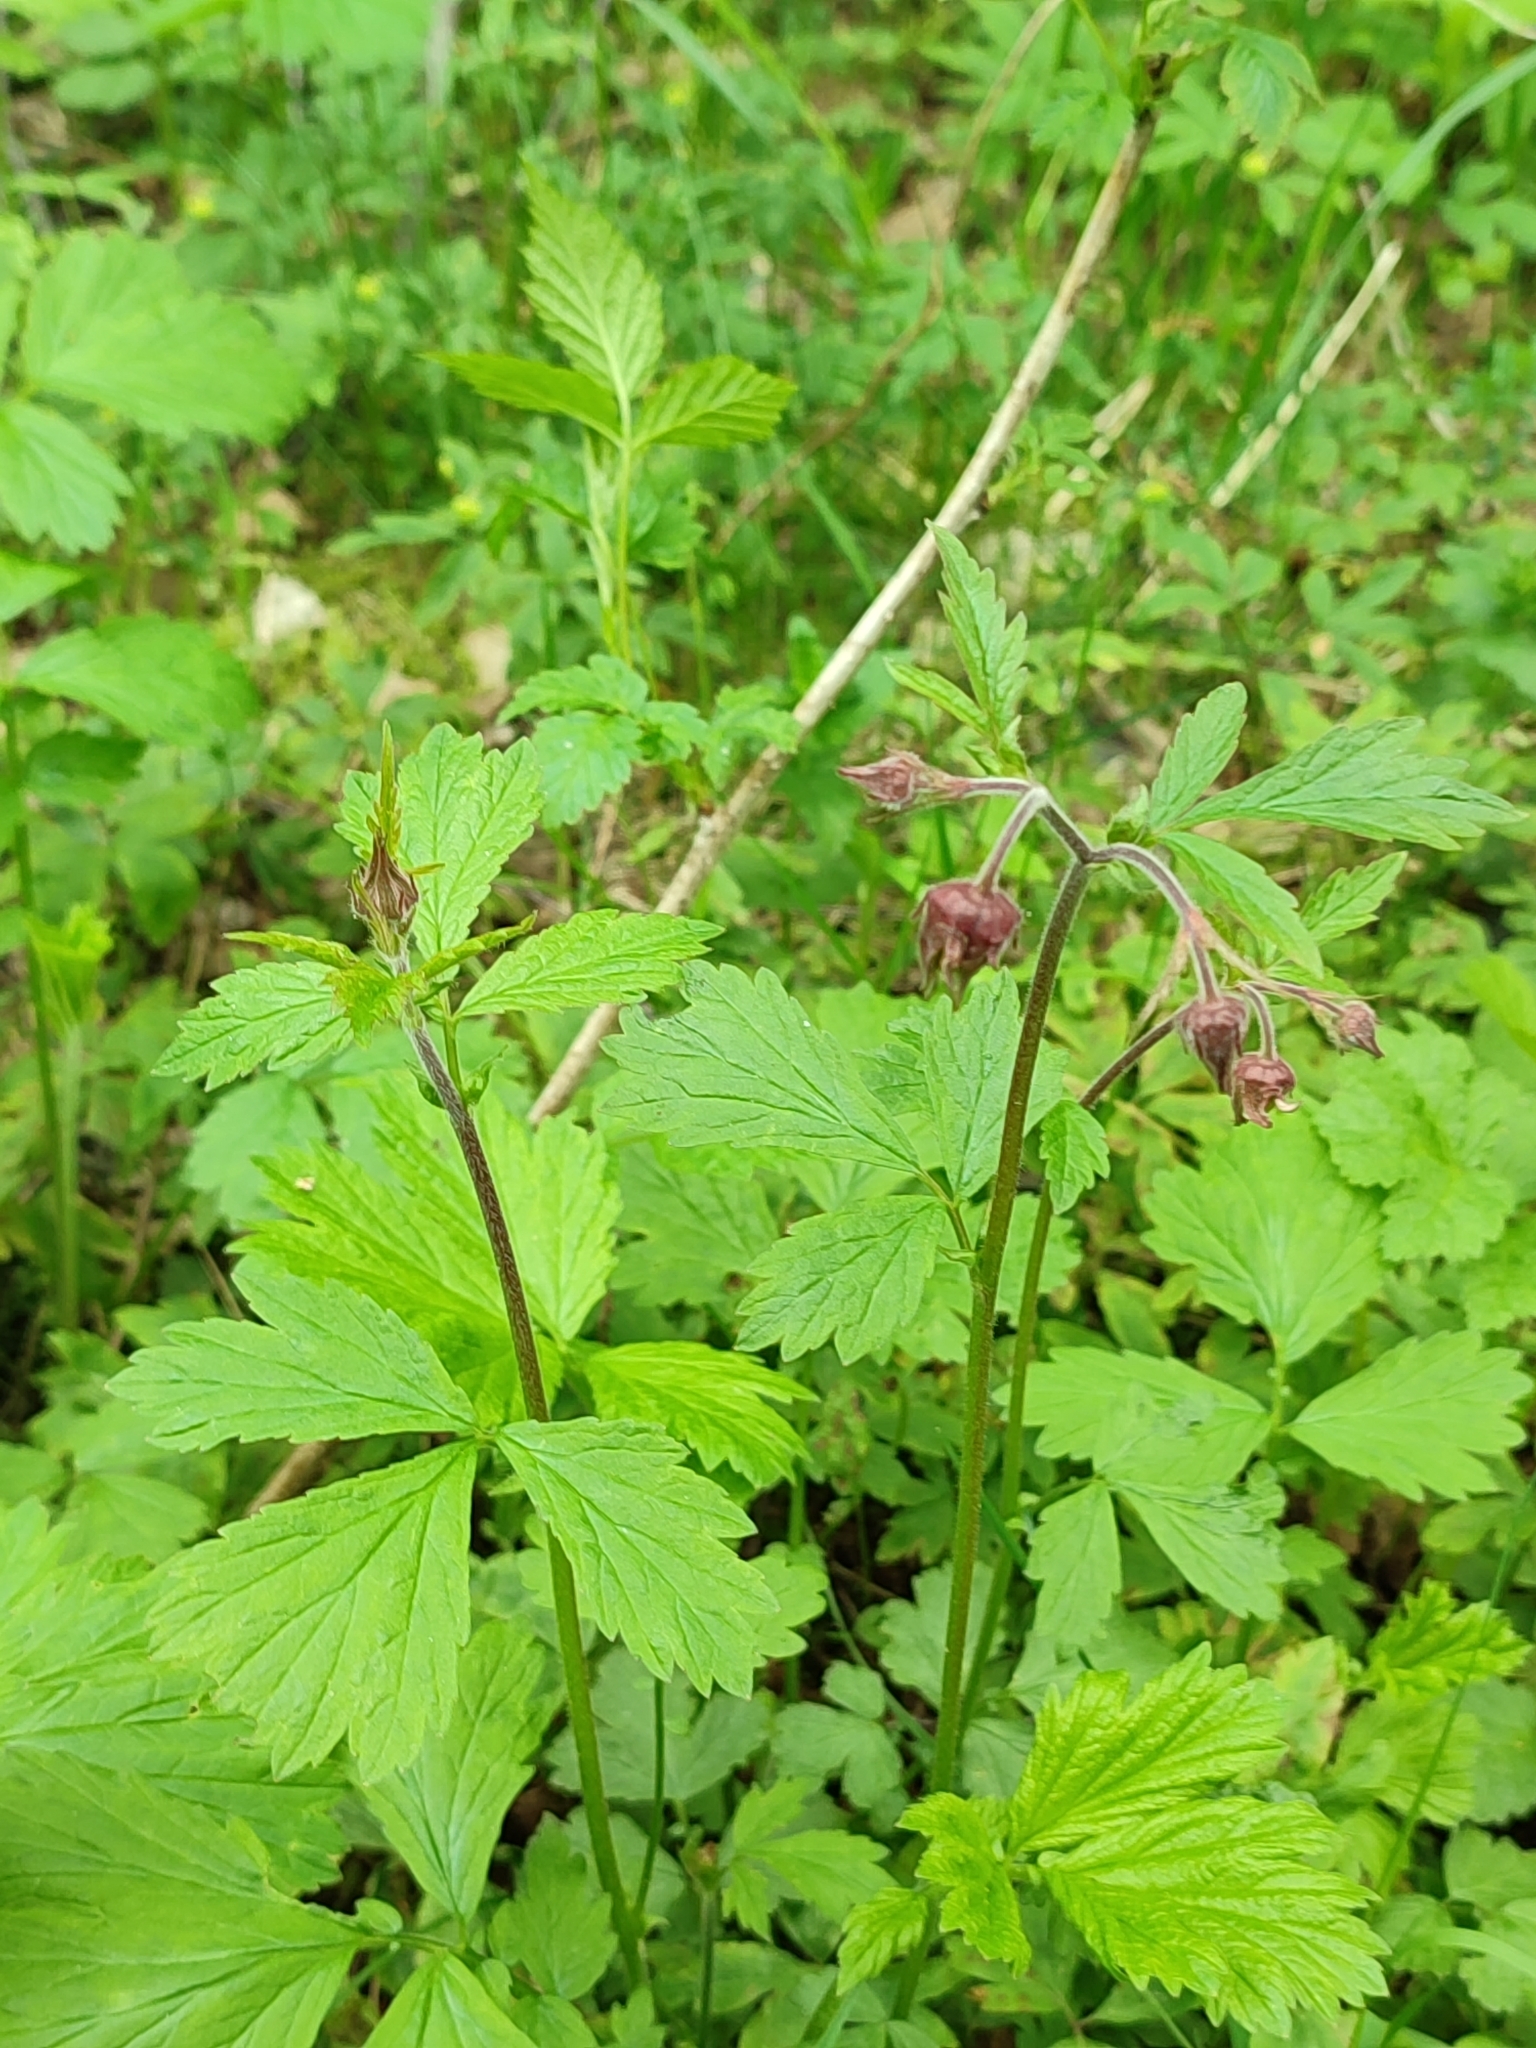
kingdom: Plantae
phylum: Tracheophyta
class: Magnoliopsida
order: Rosales
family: Rosaceae
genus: Geum
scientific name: Geum rivale
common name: Water avens
